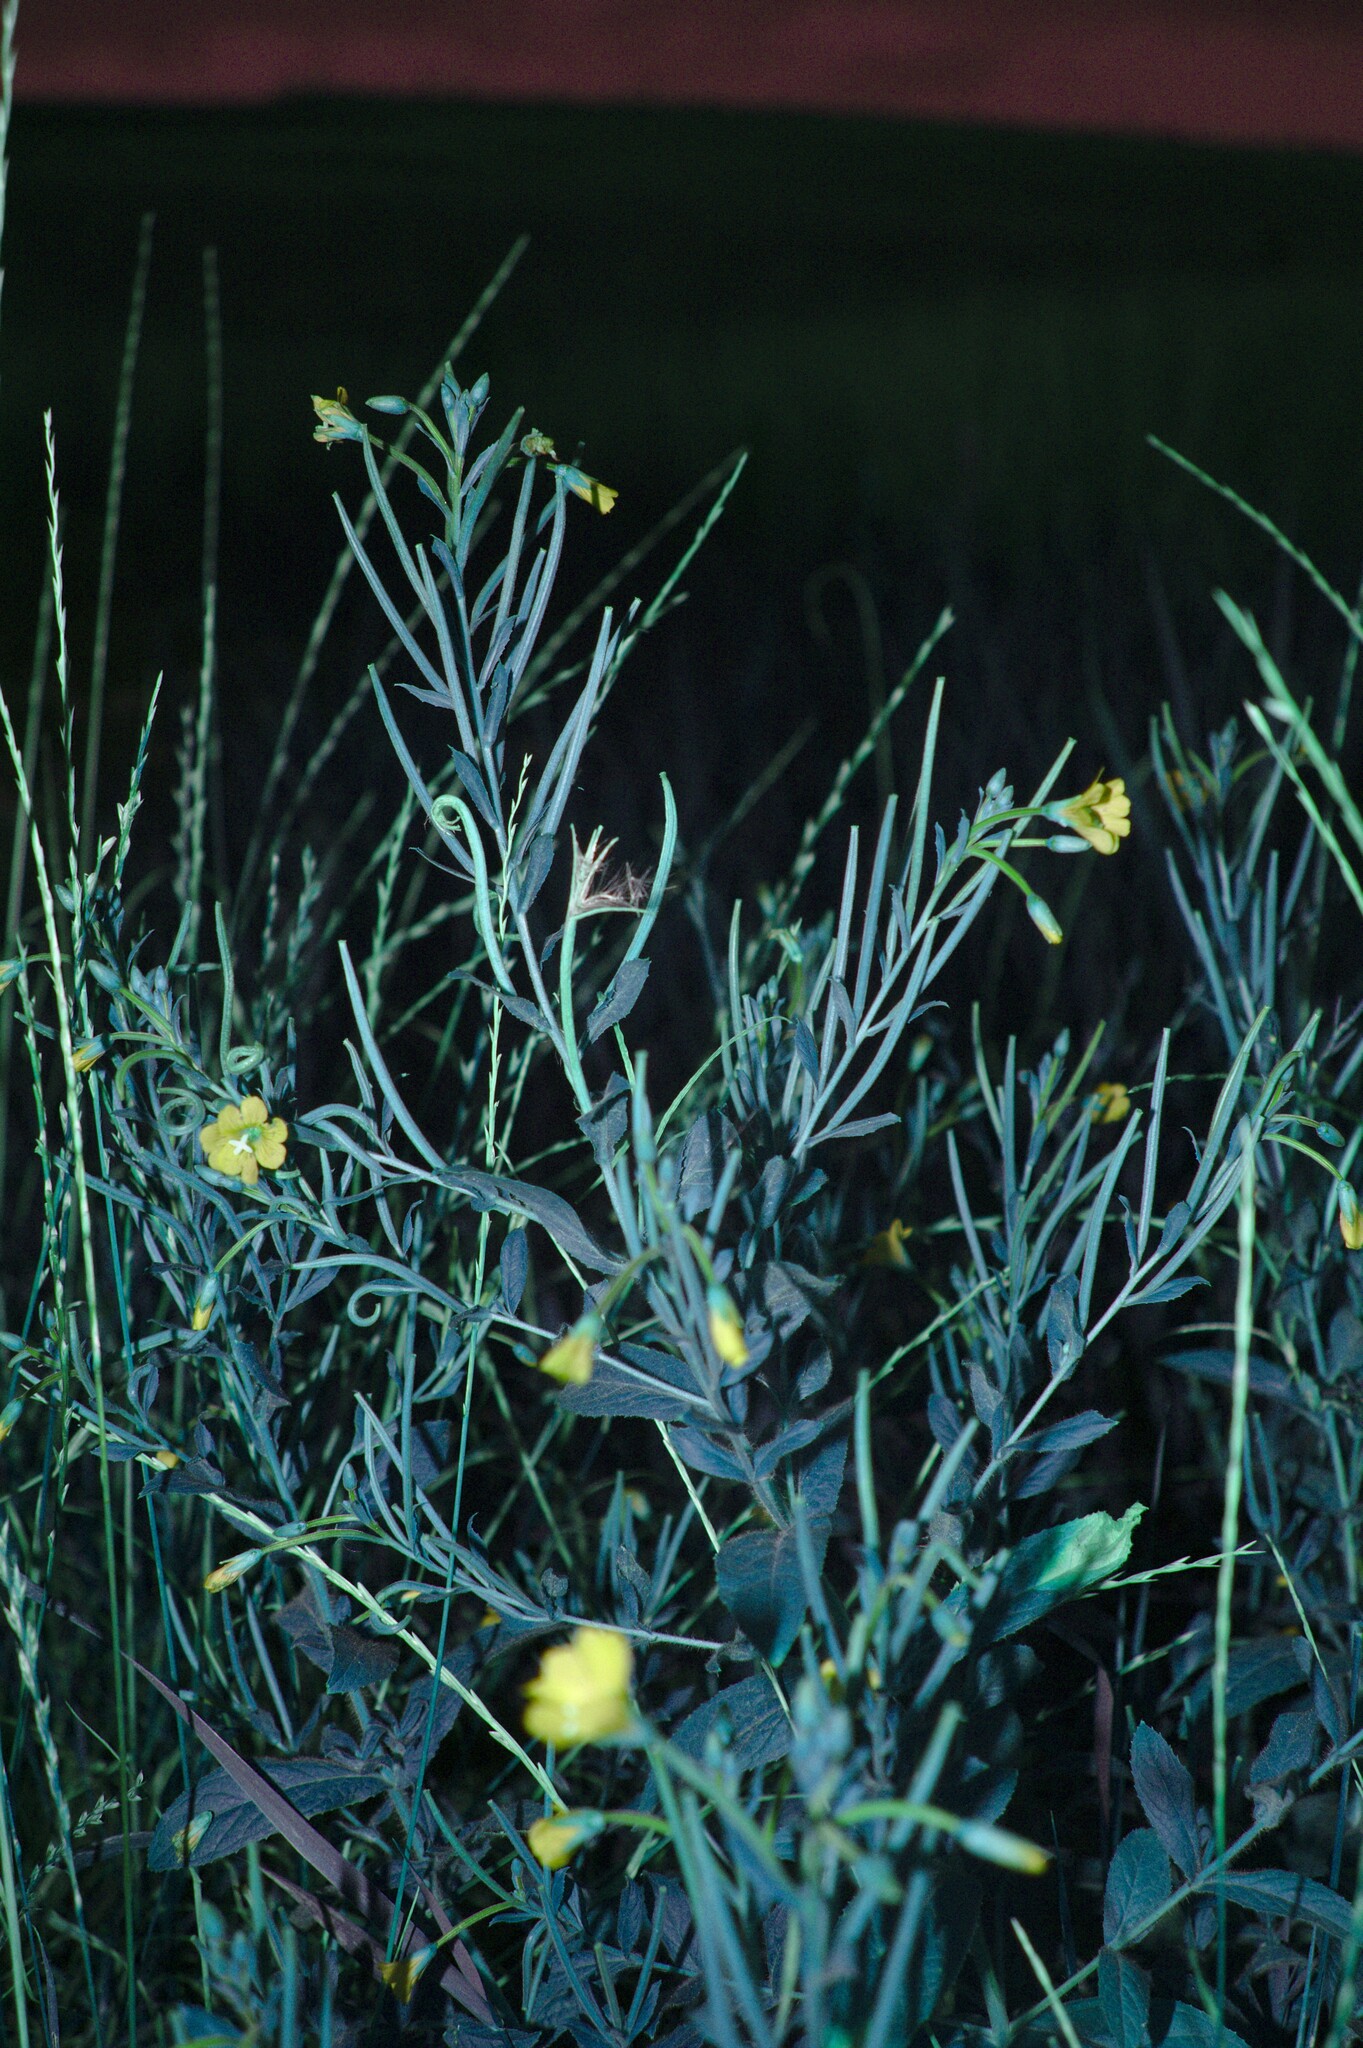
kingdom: Plantae
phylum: Tracheophyta
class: Magnoliopsida
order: Myrtales
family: Onagraceae
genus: Epilobium
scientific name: Epilobium hirsutum
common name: Great willowherb
